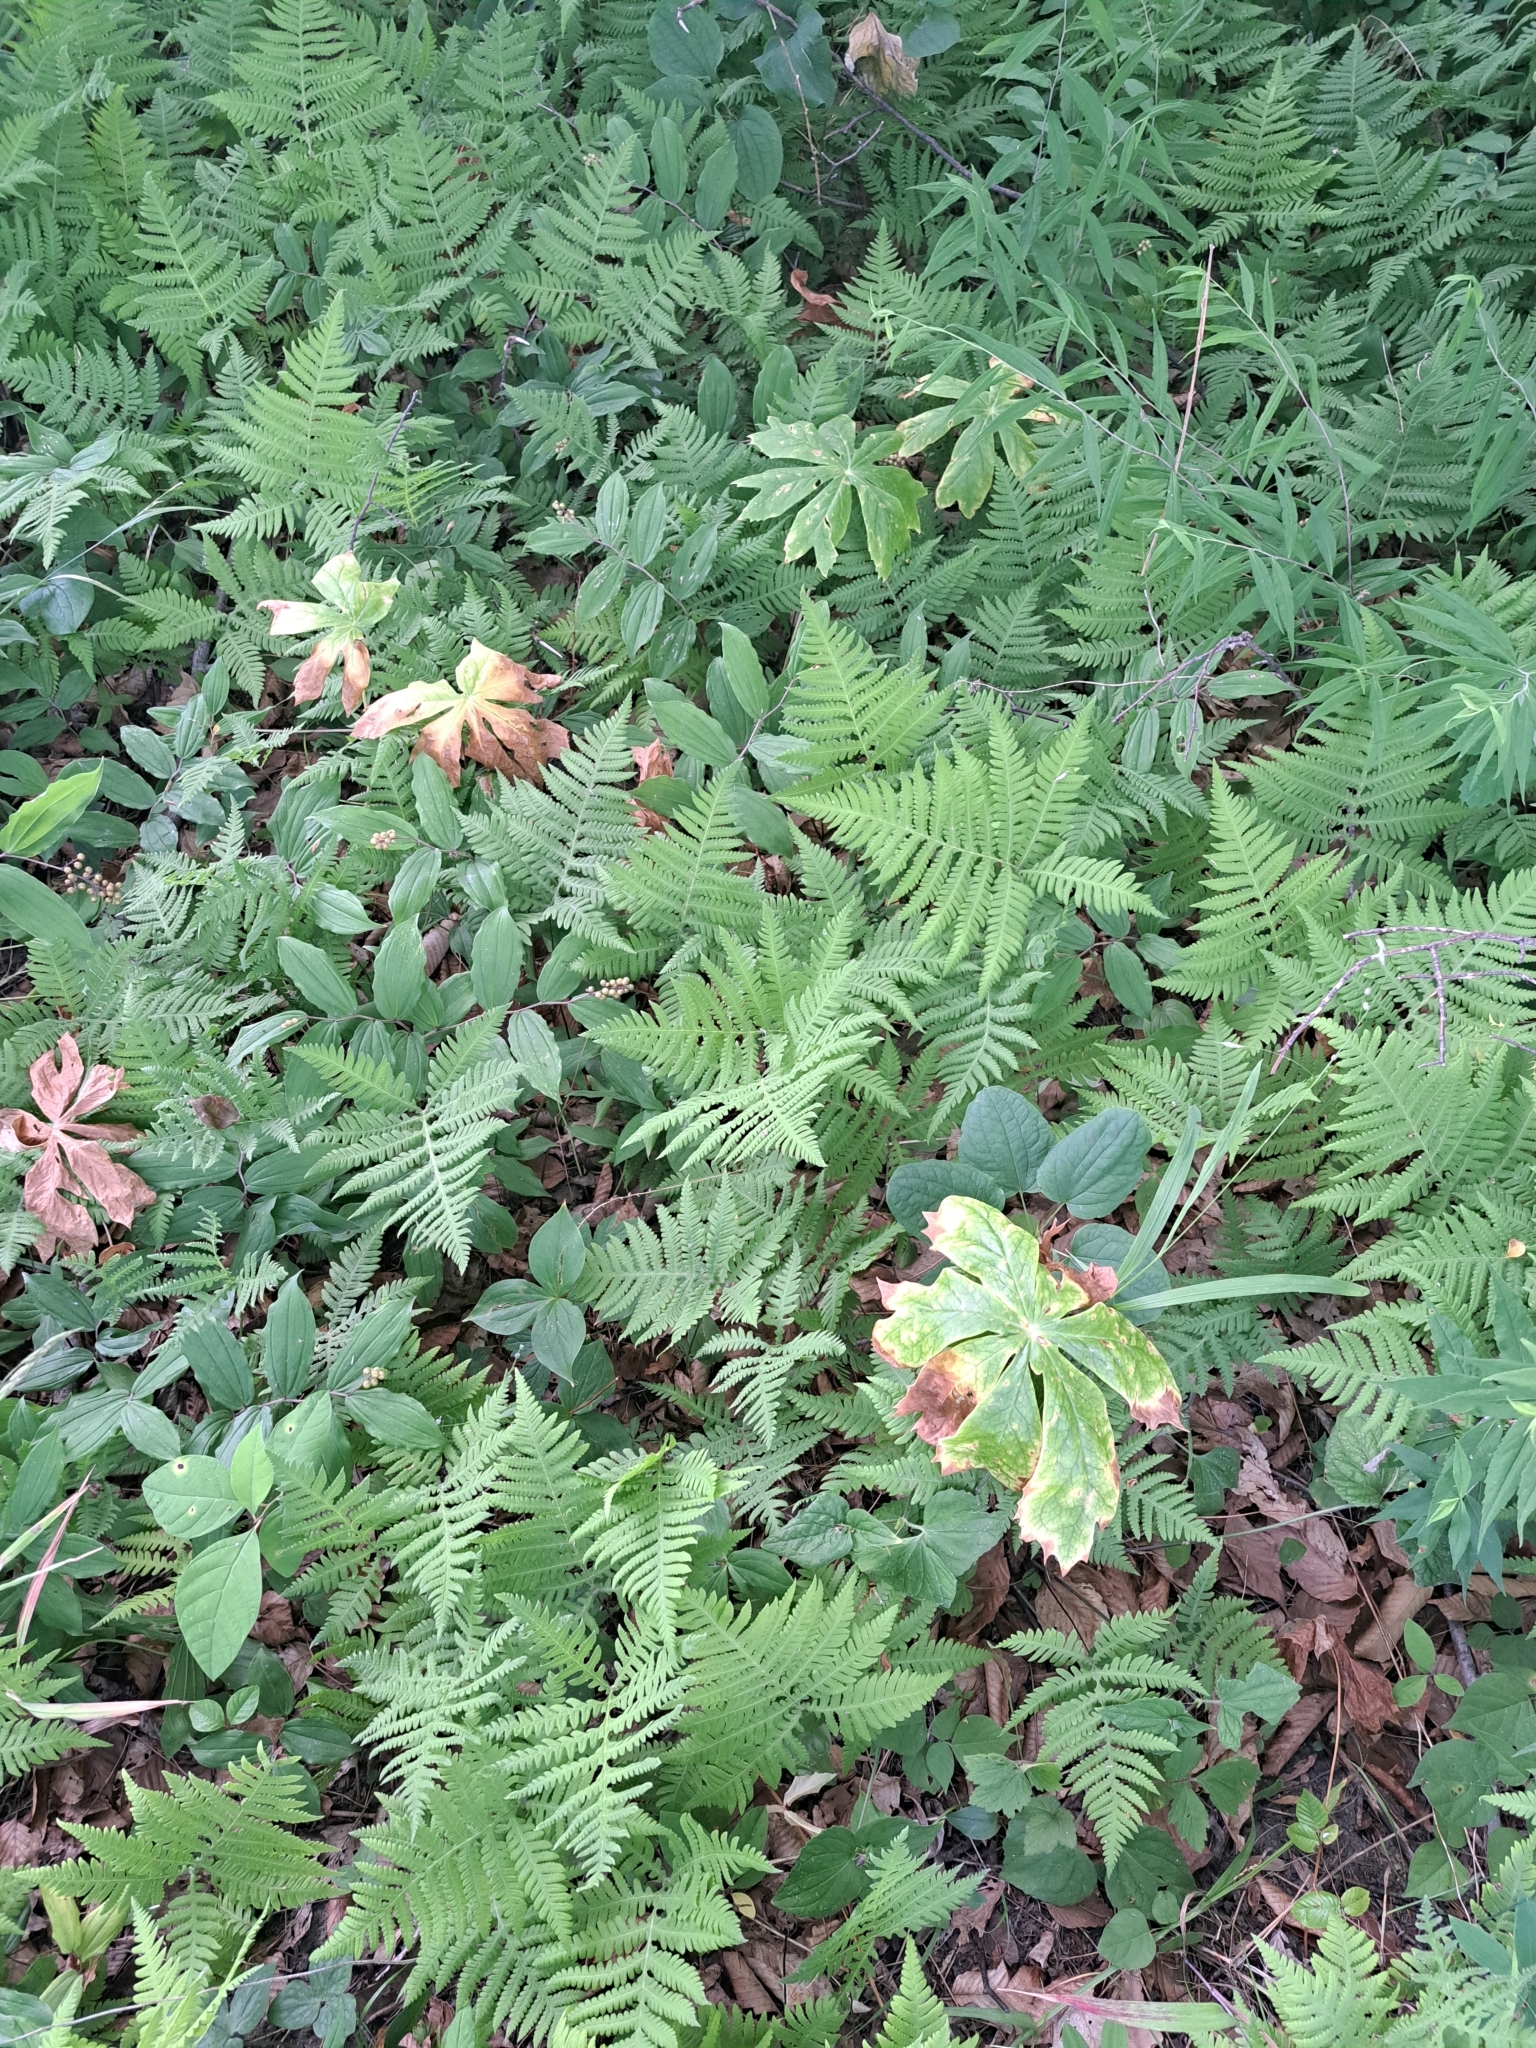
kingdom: Plantae
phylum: Tracheophyta
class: Polypodiopsida
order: Polypodiales
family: Thelypteridaceae
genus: Phegopteris
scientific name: Phegopteris hexagonoptera
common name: Broad beech fern
